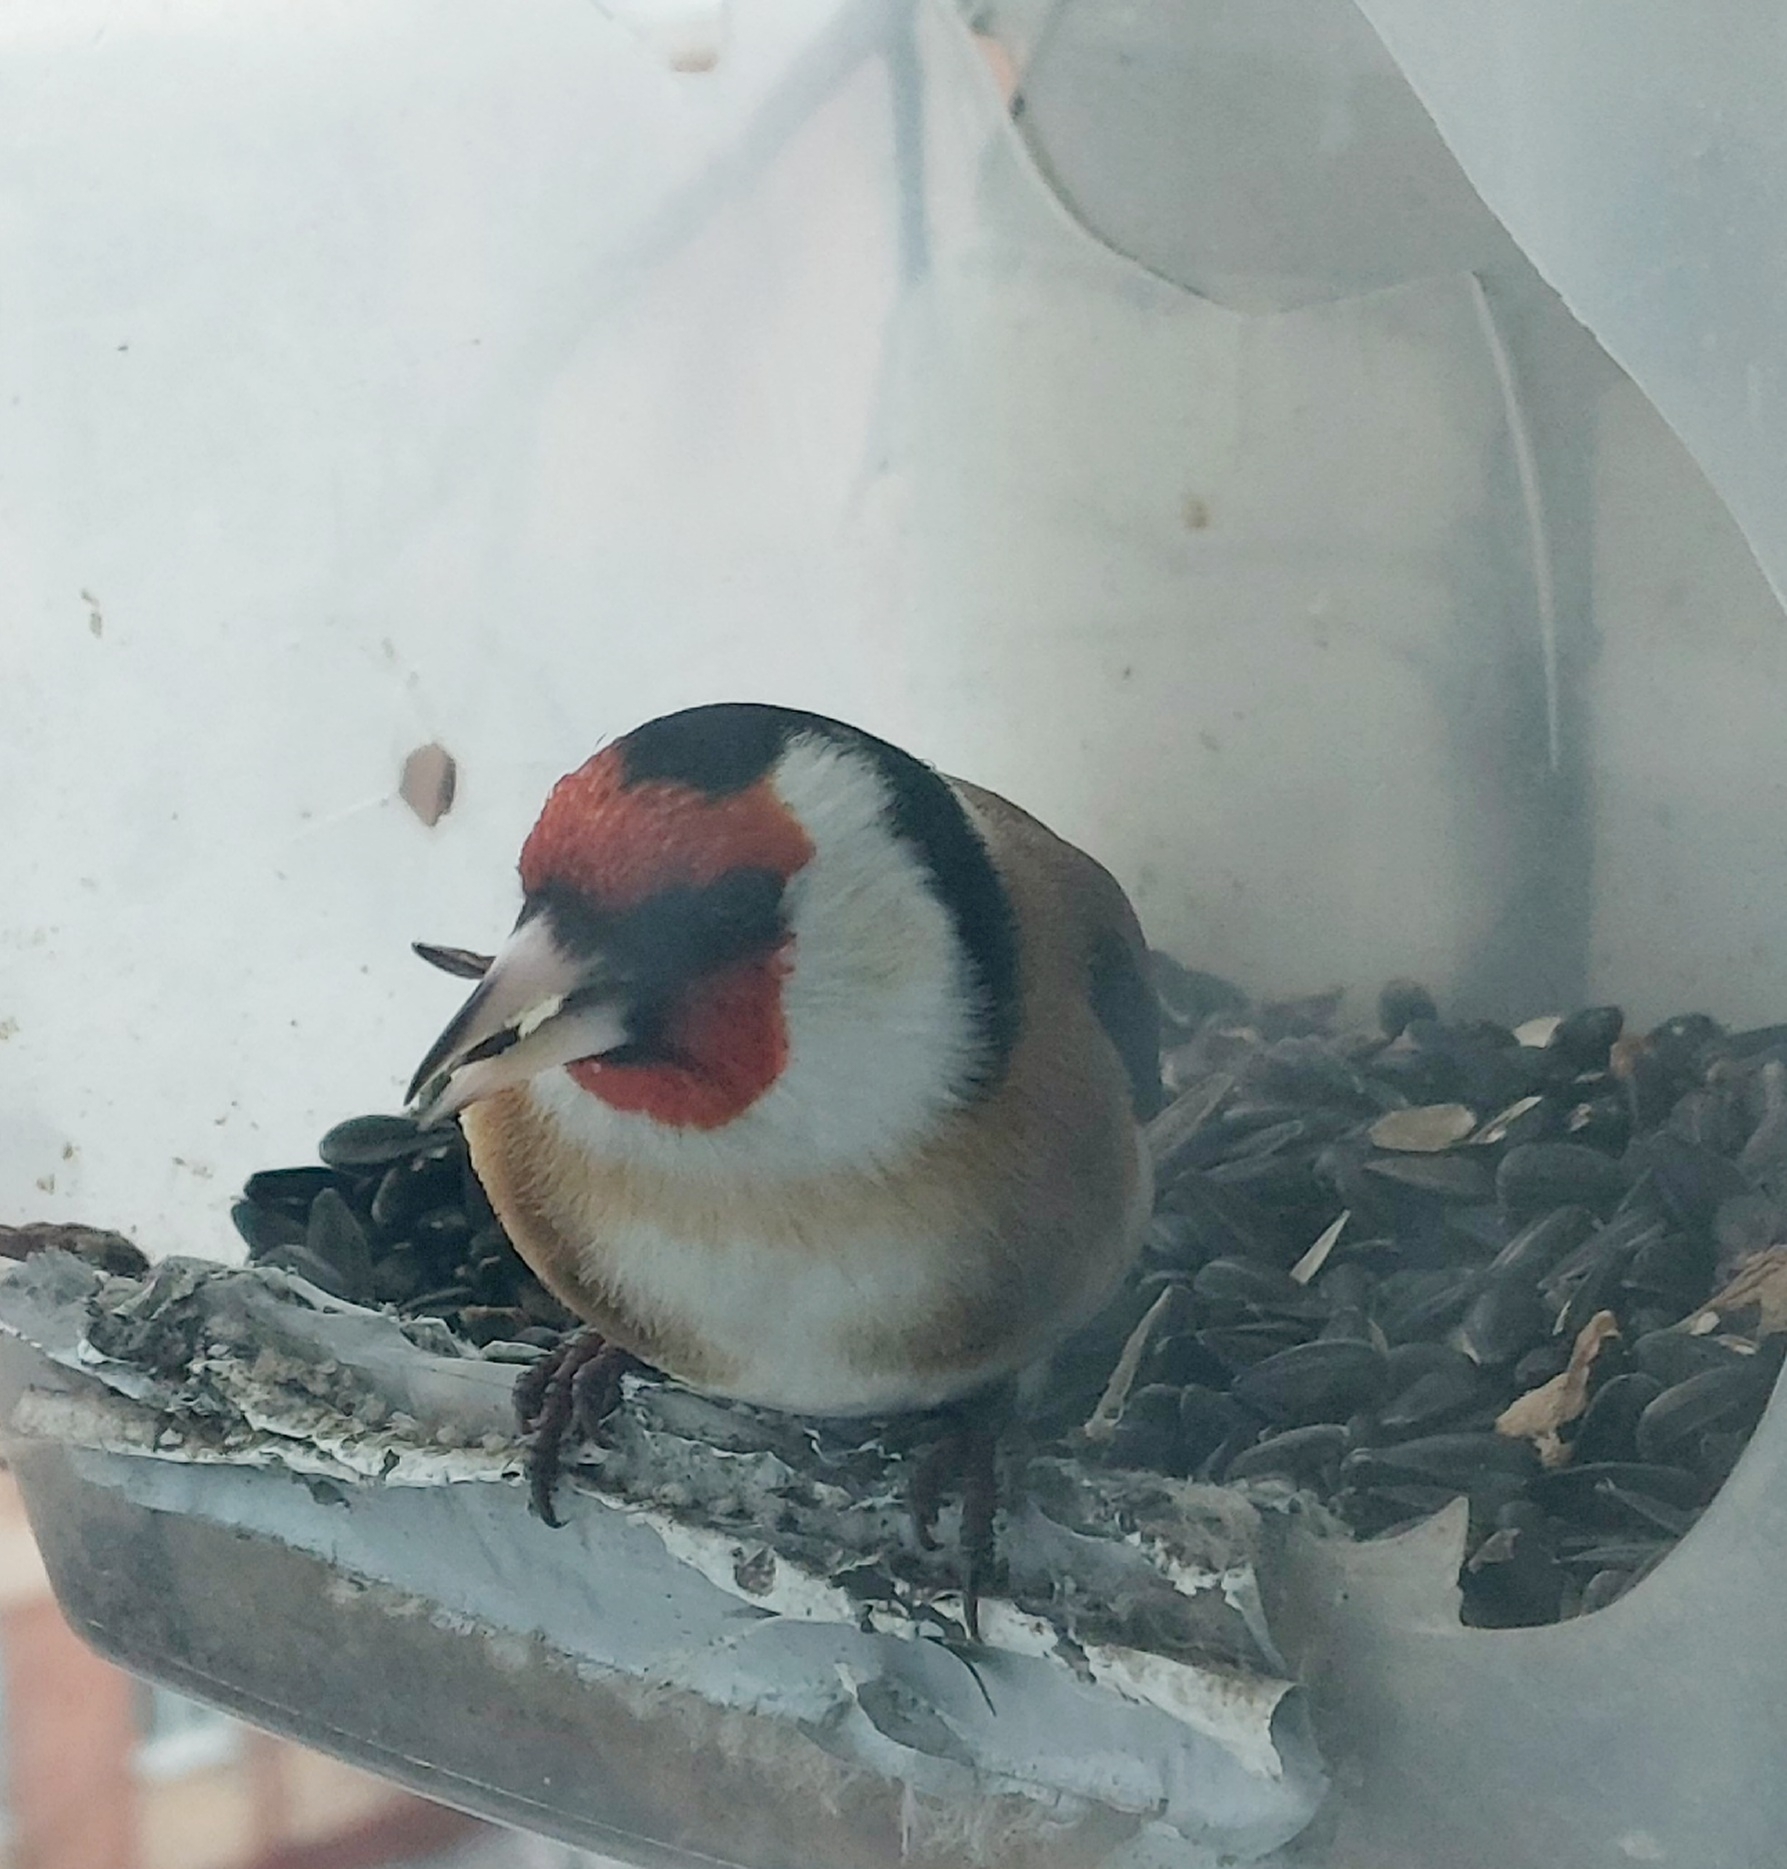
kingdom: Animalia
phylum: Chordata
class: Aves
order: Passeriformes
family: Fringillidae
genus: Carduelis
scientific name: Carduelis carduelis
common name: European goldfinch
